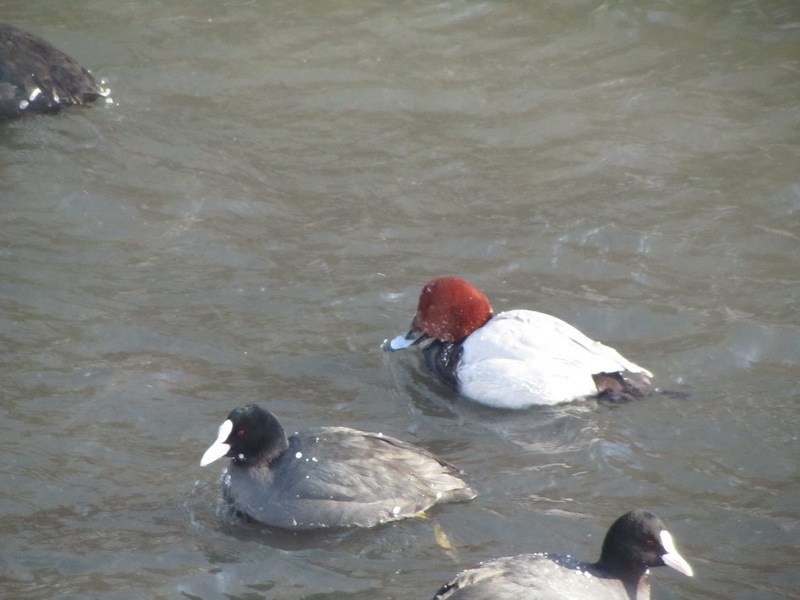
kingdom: Animalia
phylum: Chordata
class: Aves
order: Anseriformes
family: Anatidae
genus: Aythya
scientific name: Aythya ferina
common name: Common pochard
